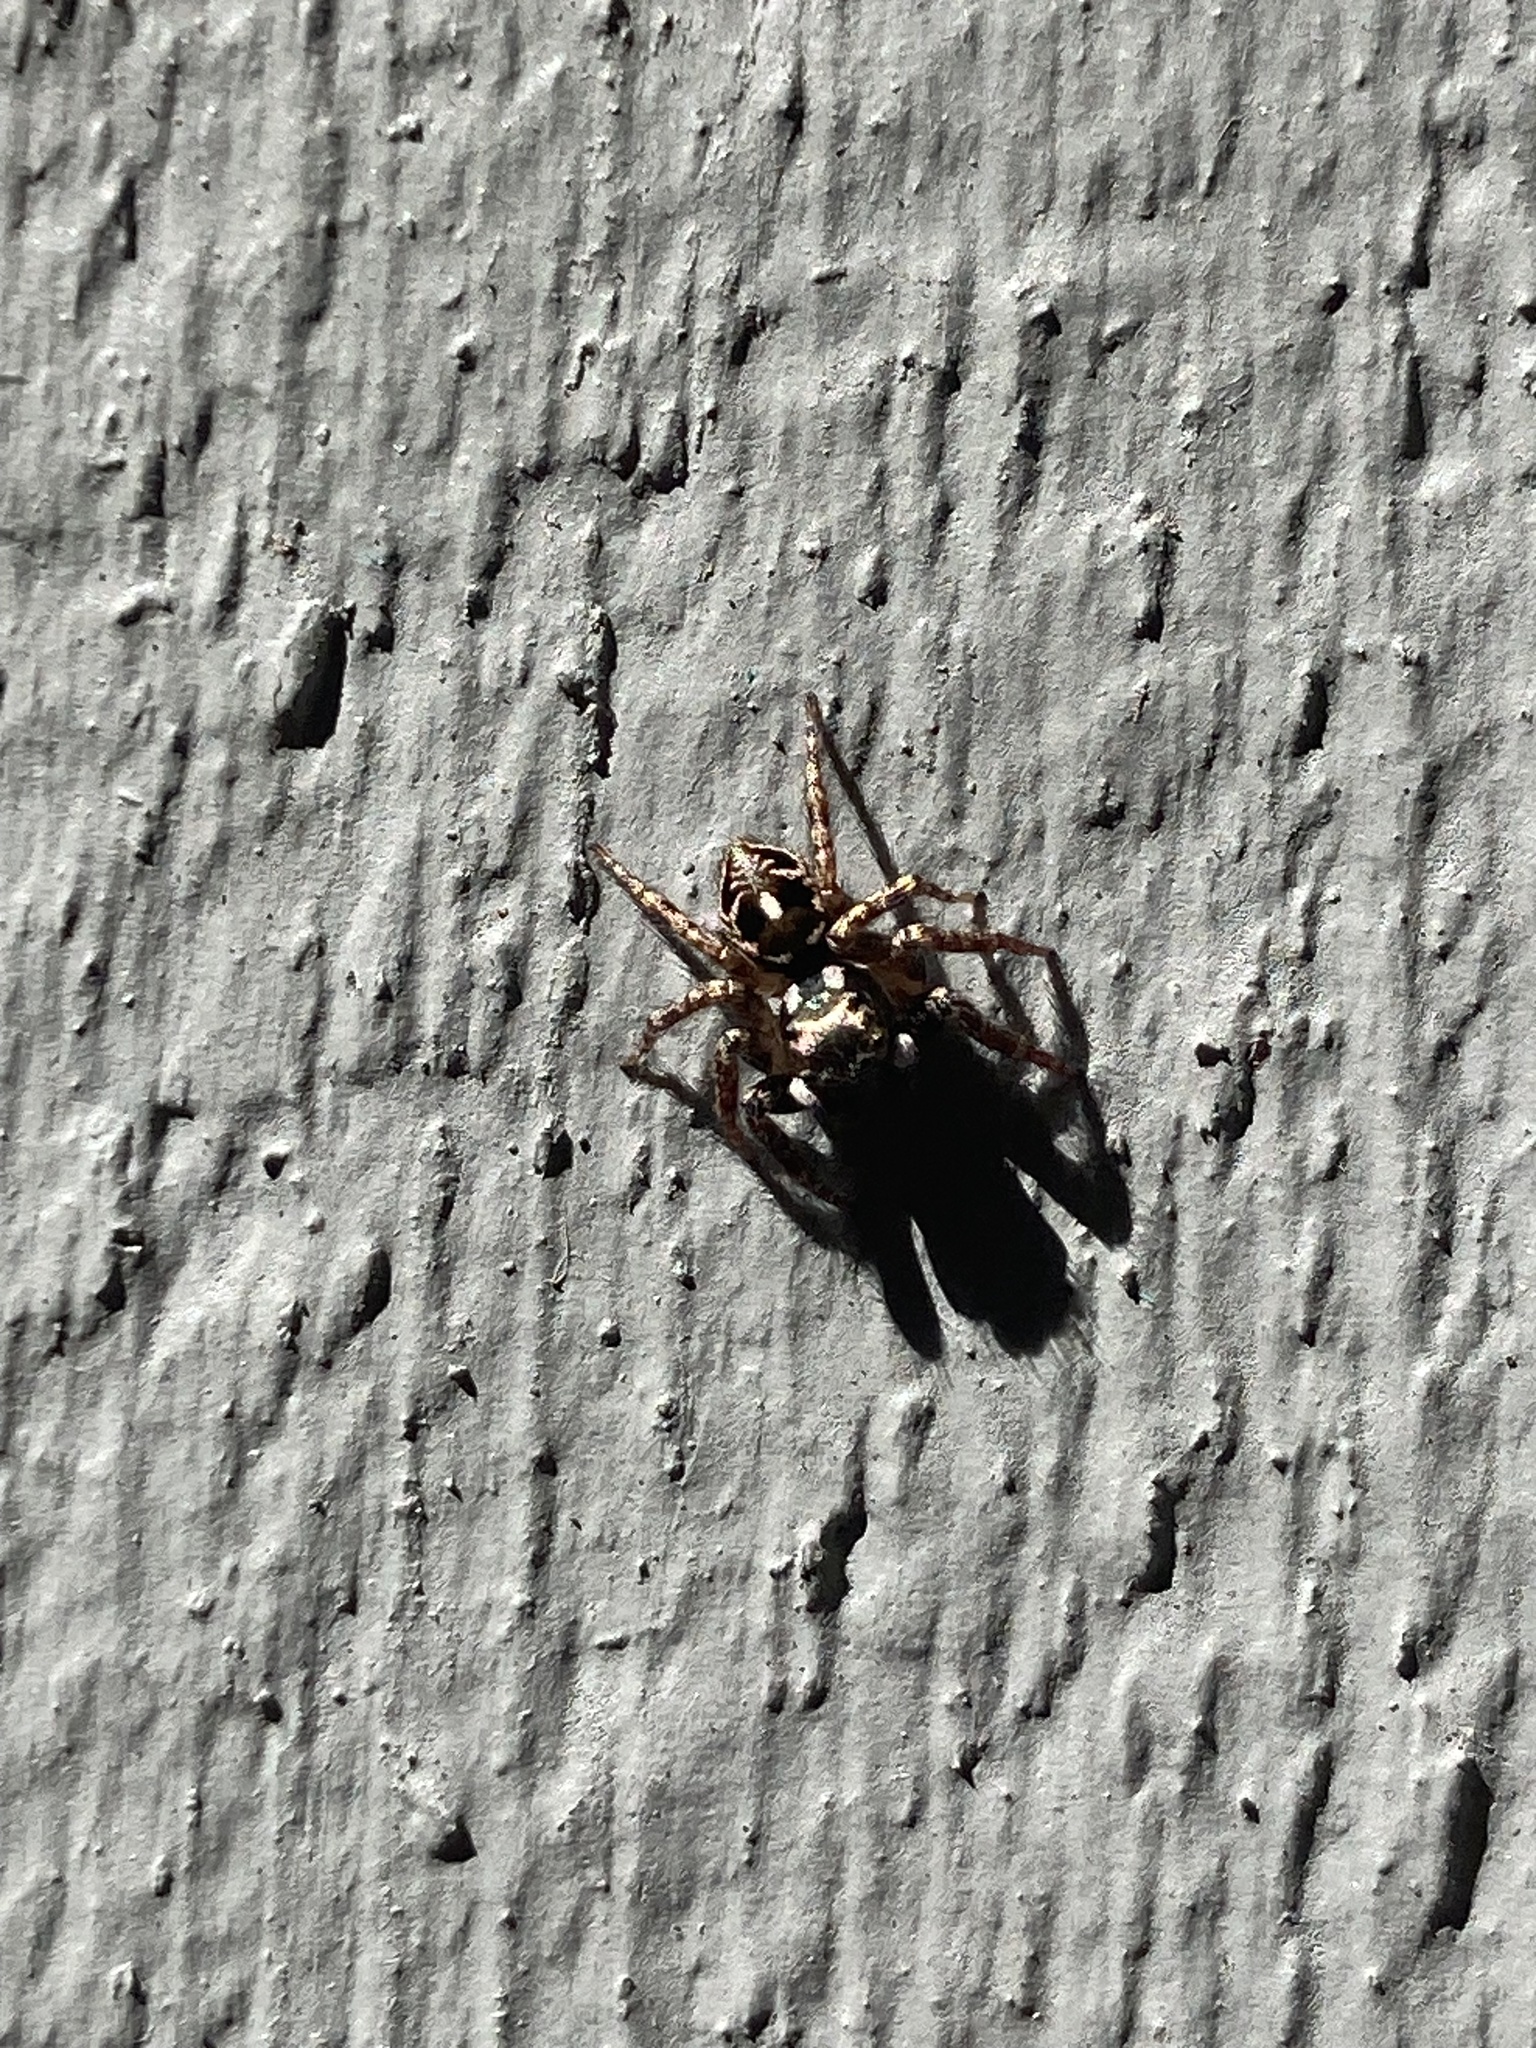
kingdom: Animalia
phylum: Arthropoda
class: Arachnida
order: Araneae
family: Salticidae
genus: Anasaitis
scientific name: Anasaitis canosa
